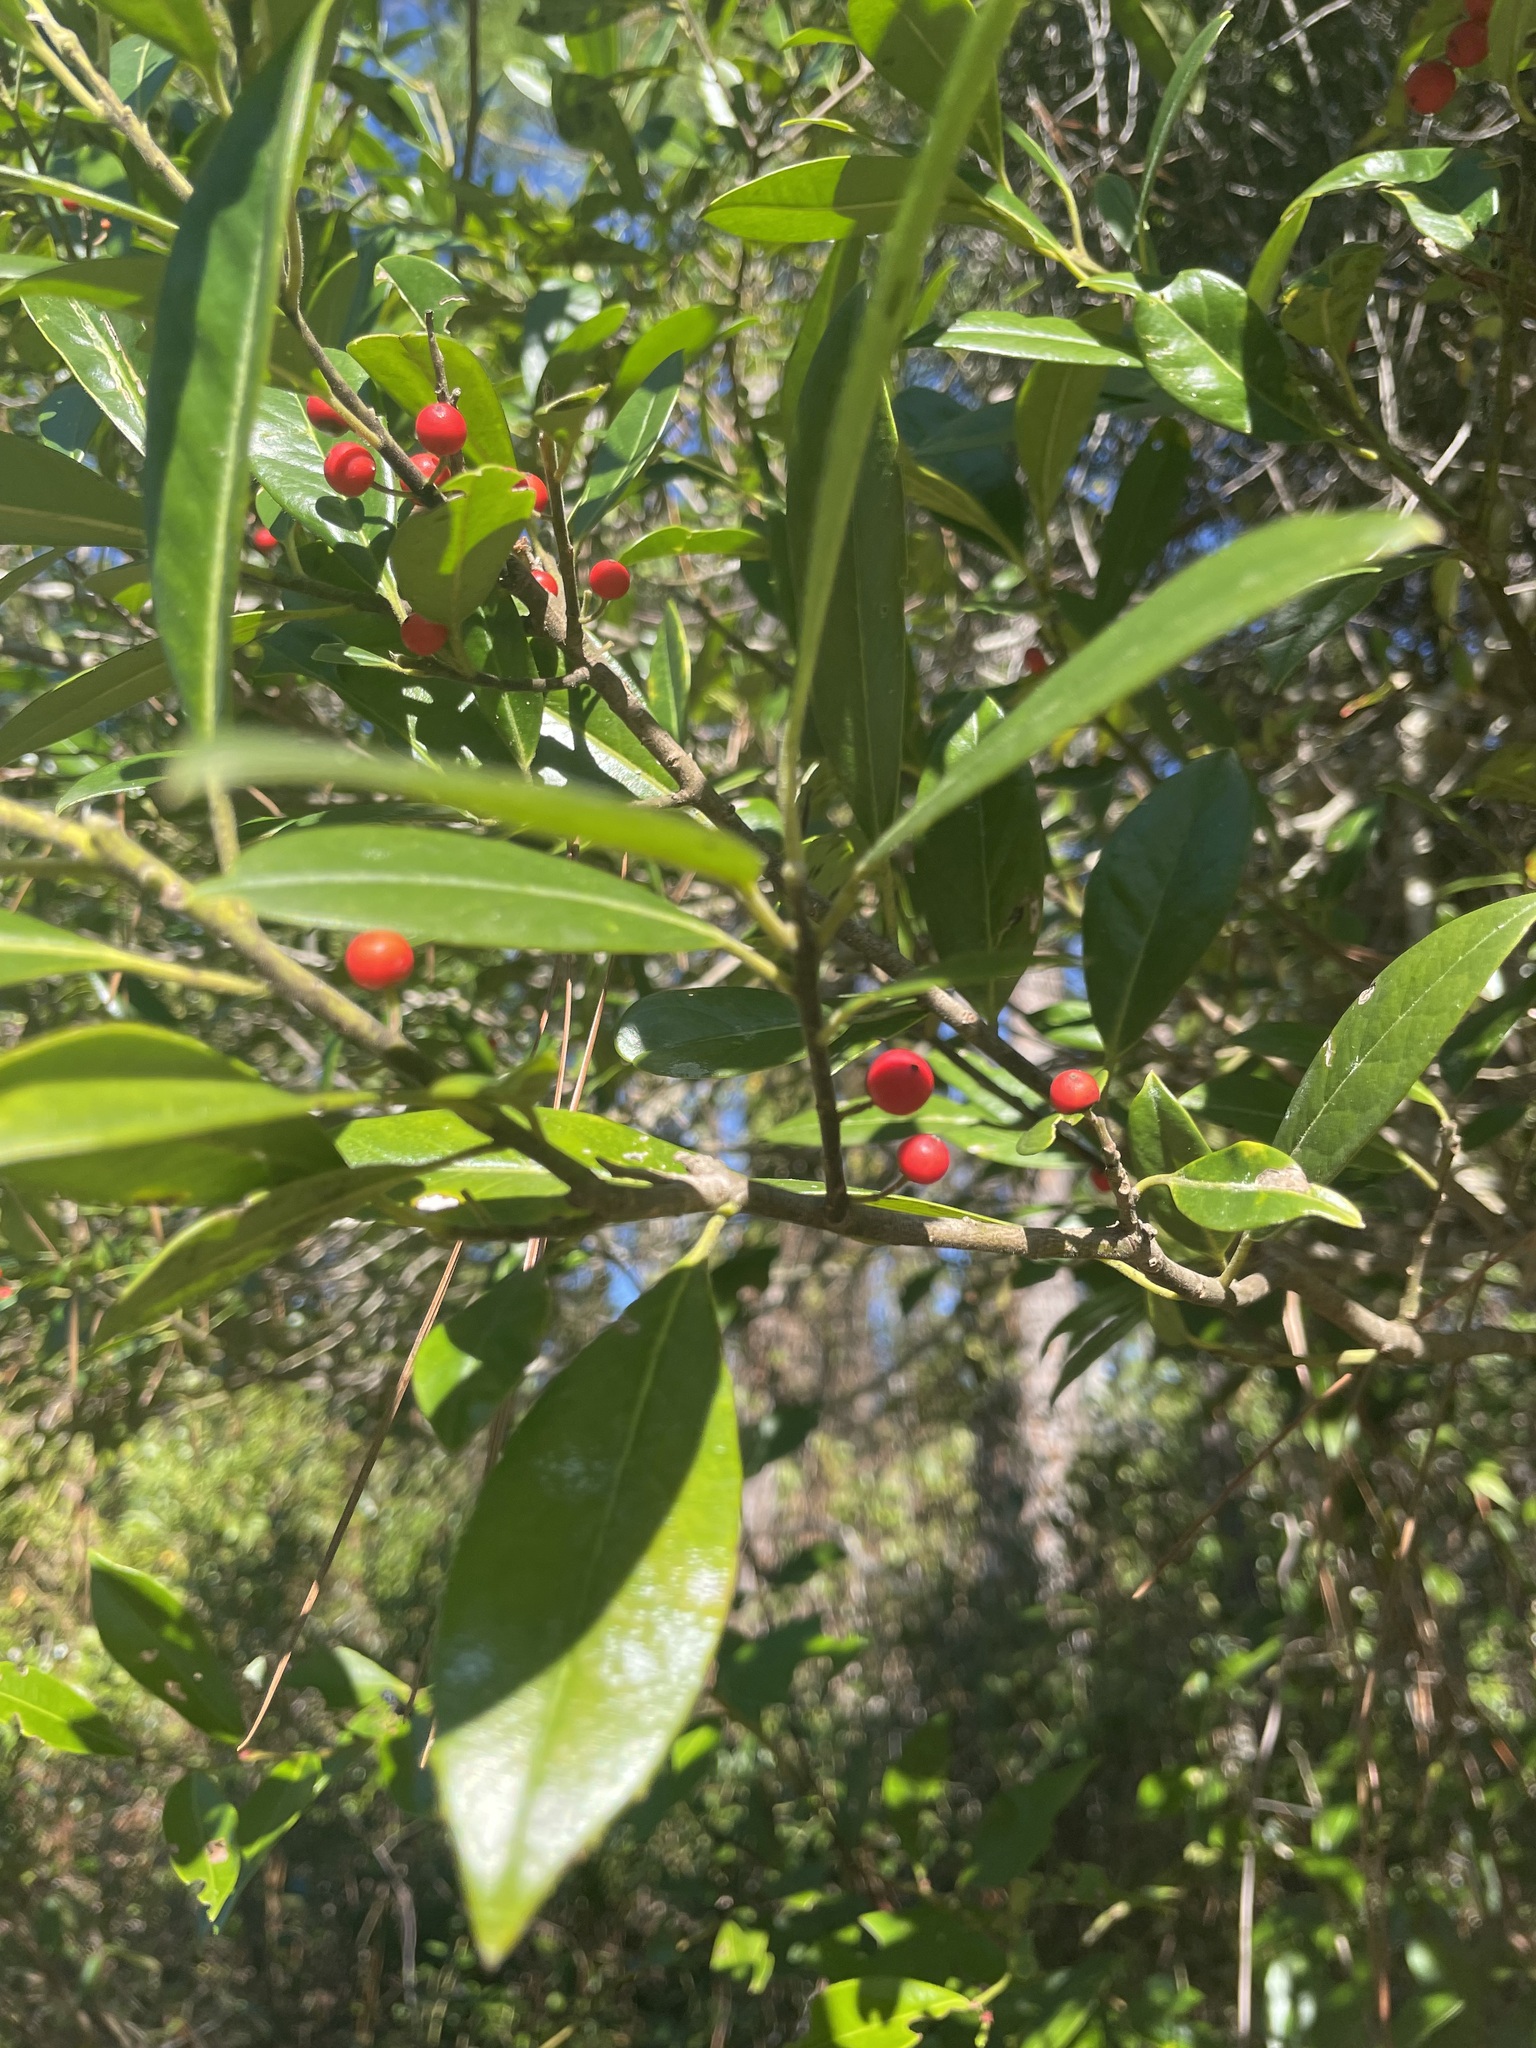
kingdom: Plantae
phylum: Tracheophyta
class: Magnoliopsida
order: Aquifoliales
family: Aquifoliaceae
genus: Ilex
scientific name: Ilex cassine
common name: Dahoon
